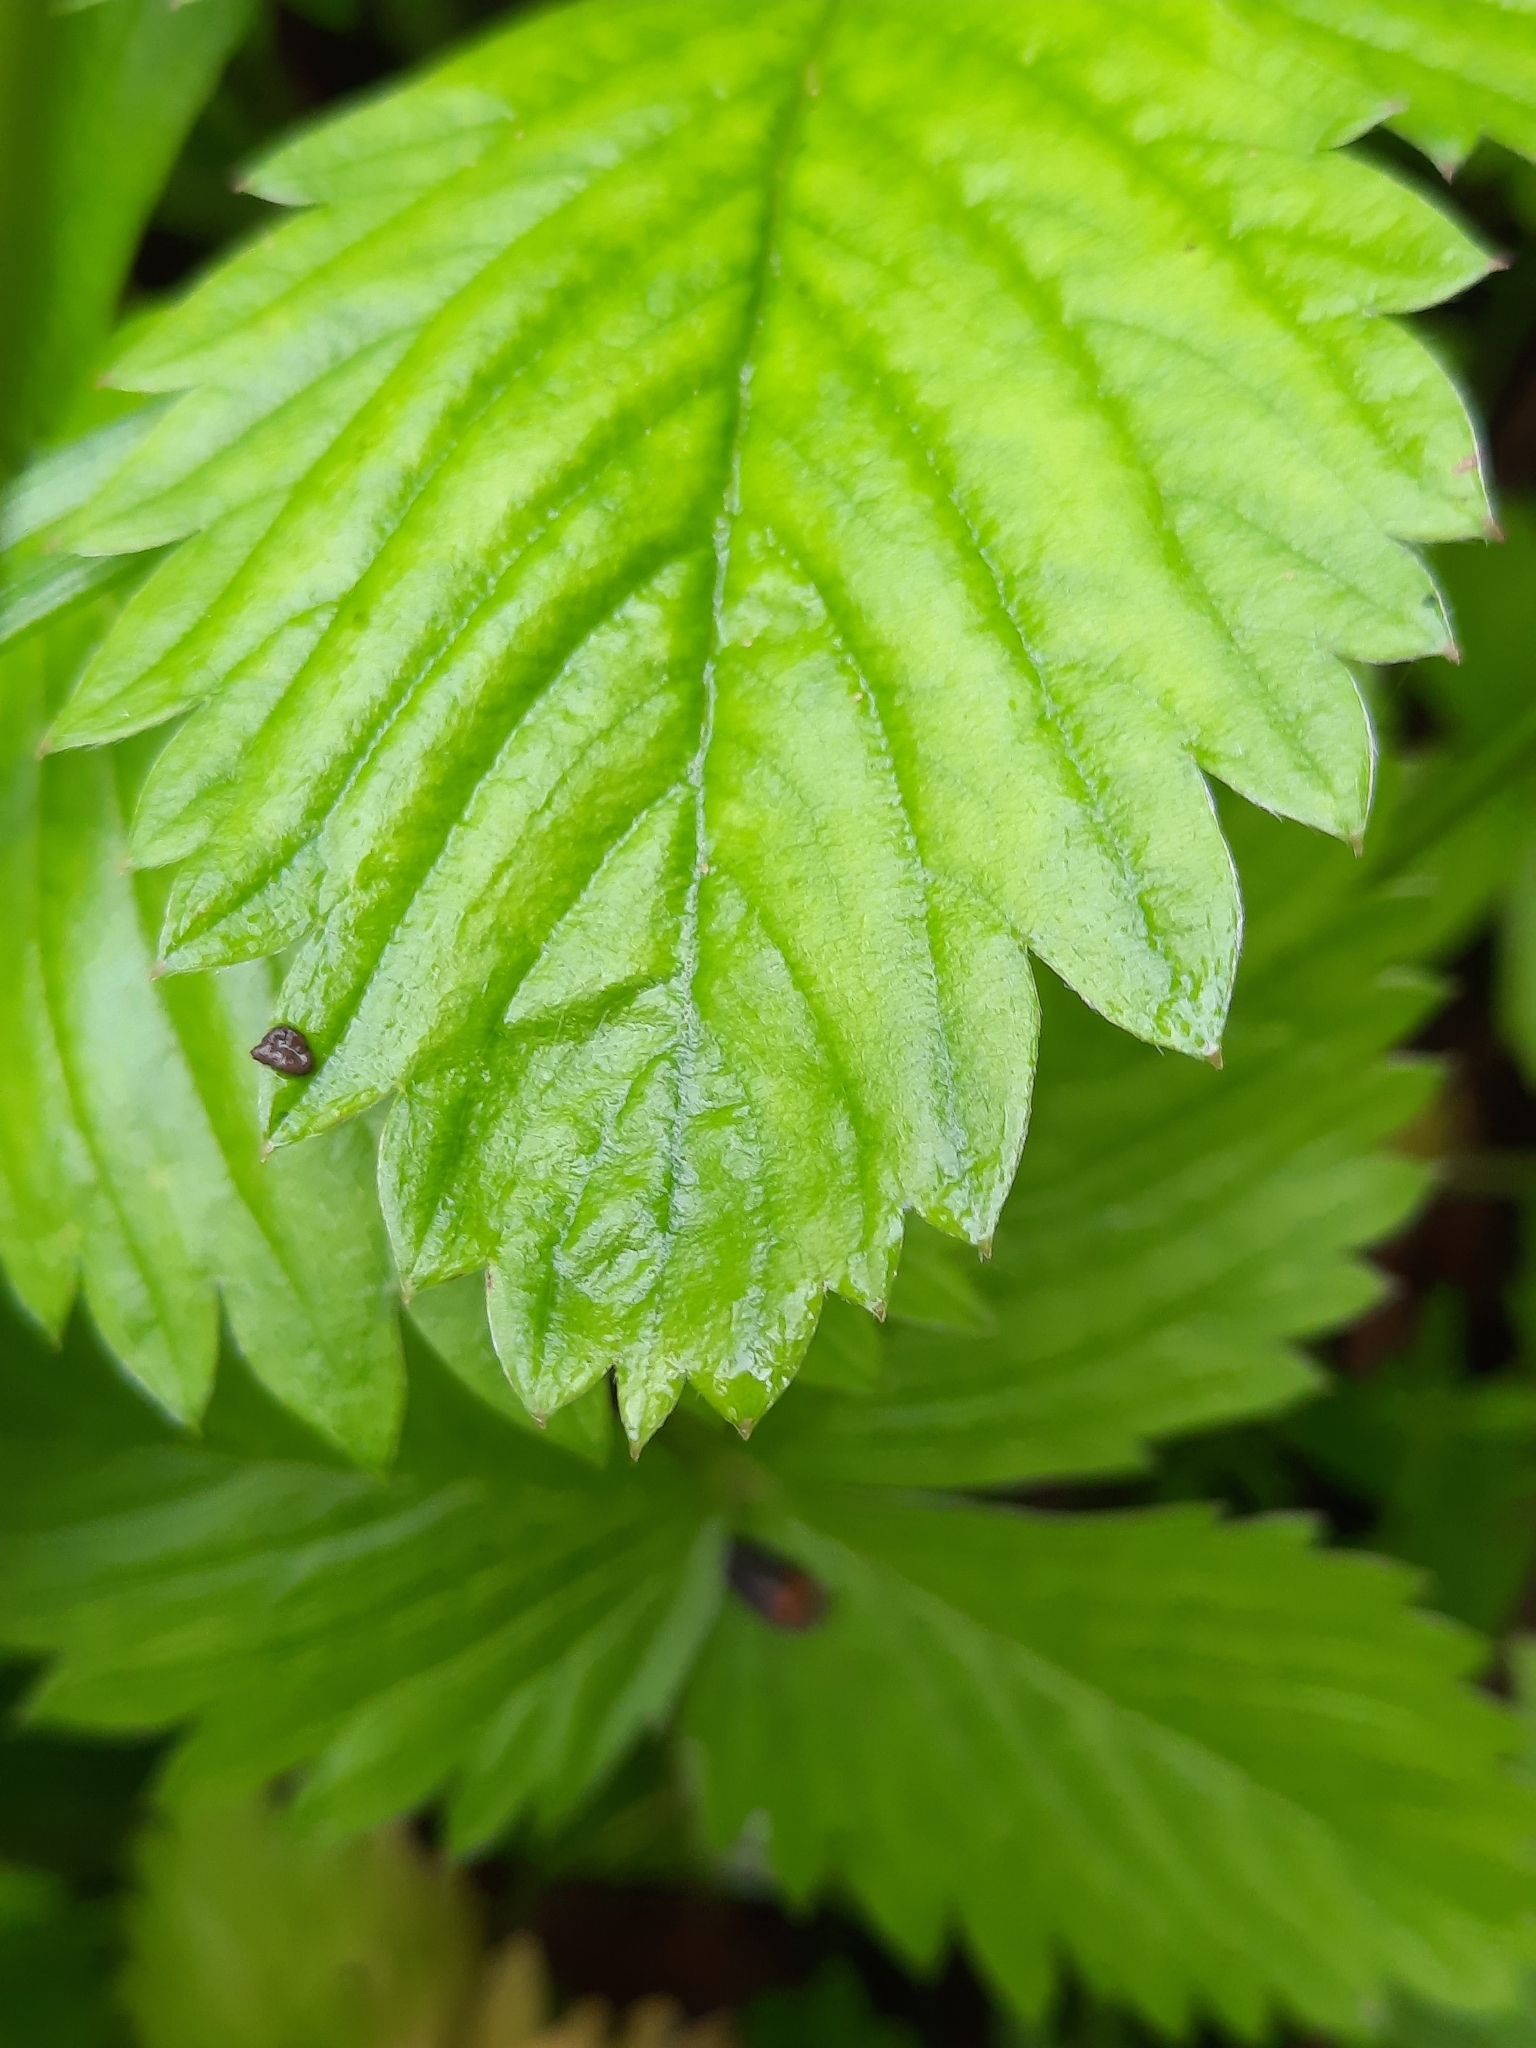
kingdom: Plantae
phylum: Tracheophyta
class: Magnoliopsida
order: Rosales
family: Rosaceae
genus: Fragaria
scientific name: Fragaria virginiana
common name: Thickleaved wild strawberry
